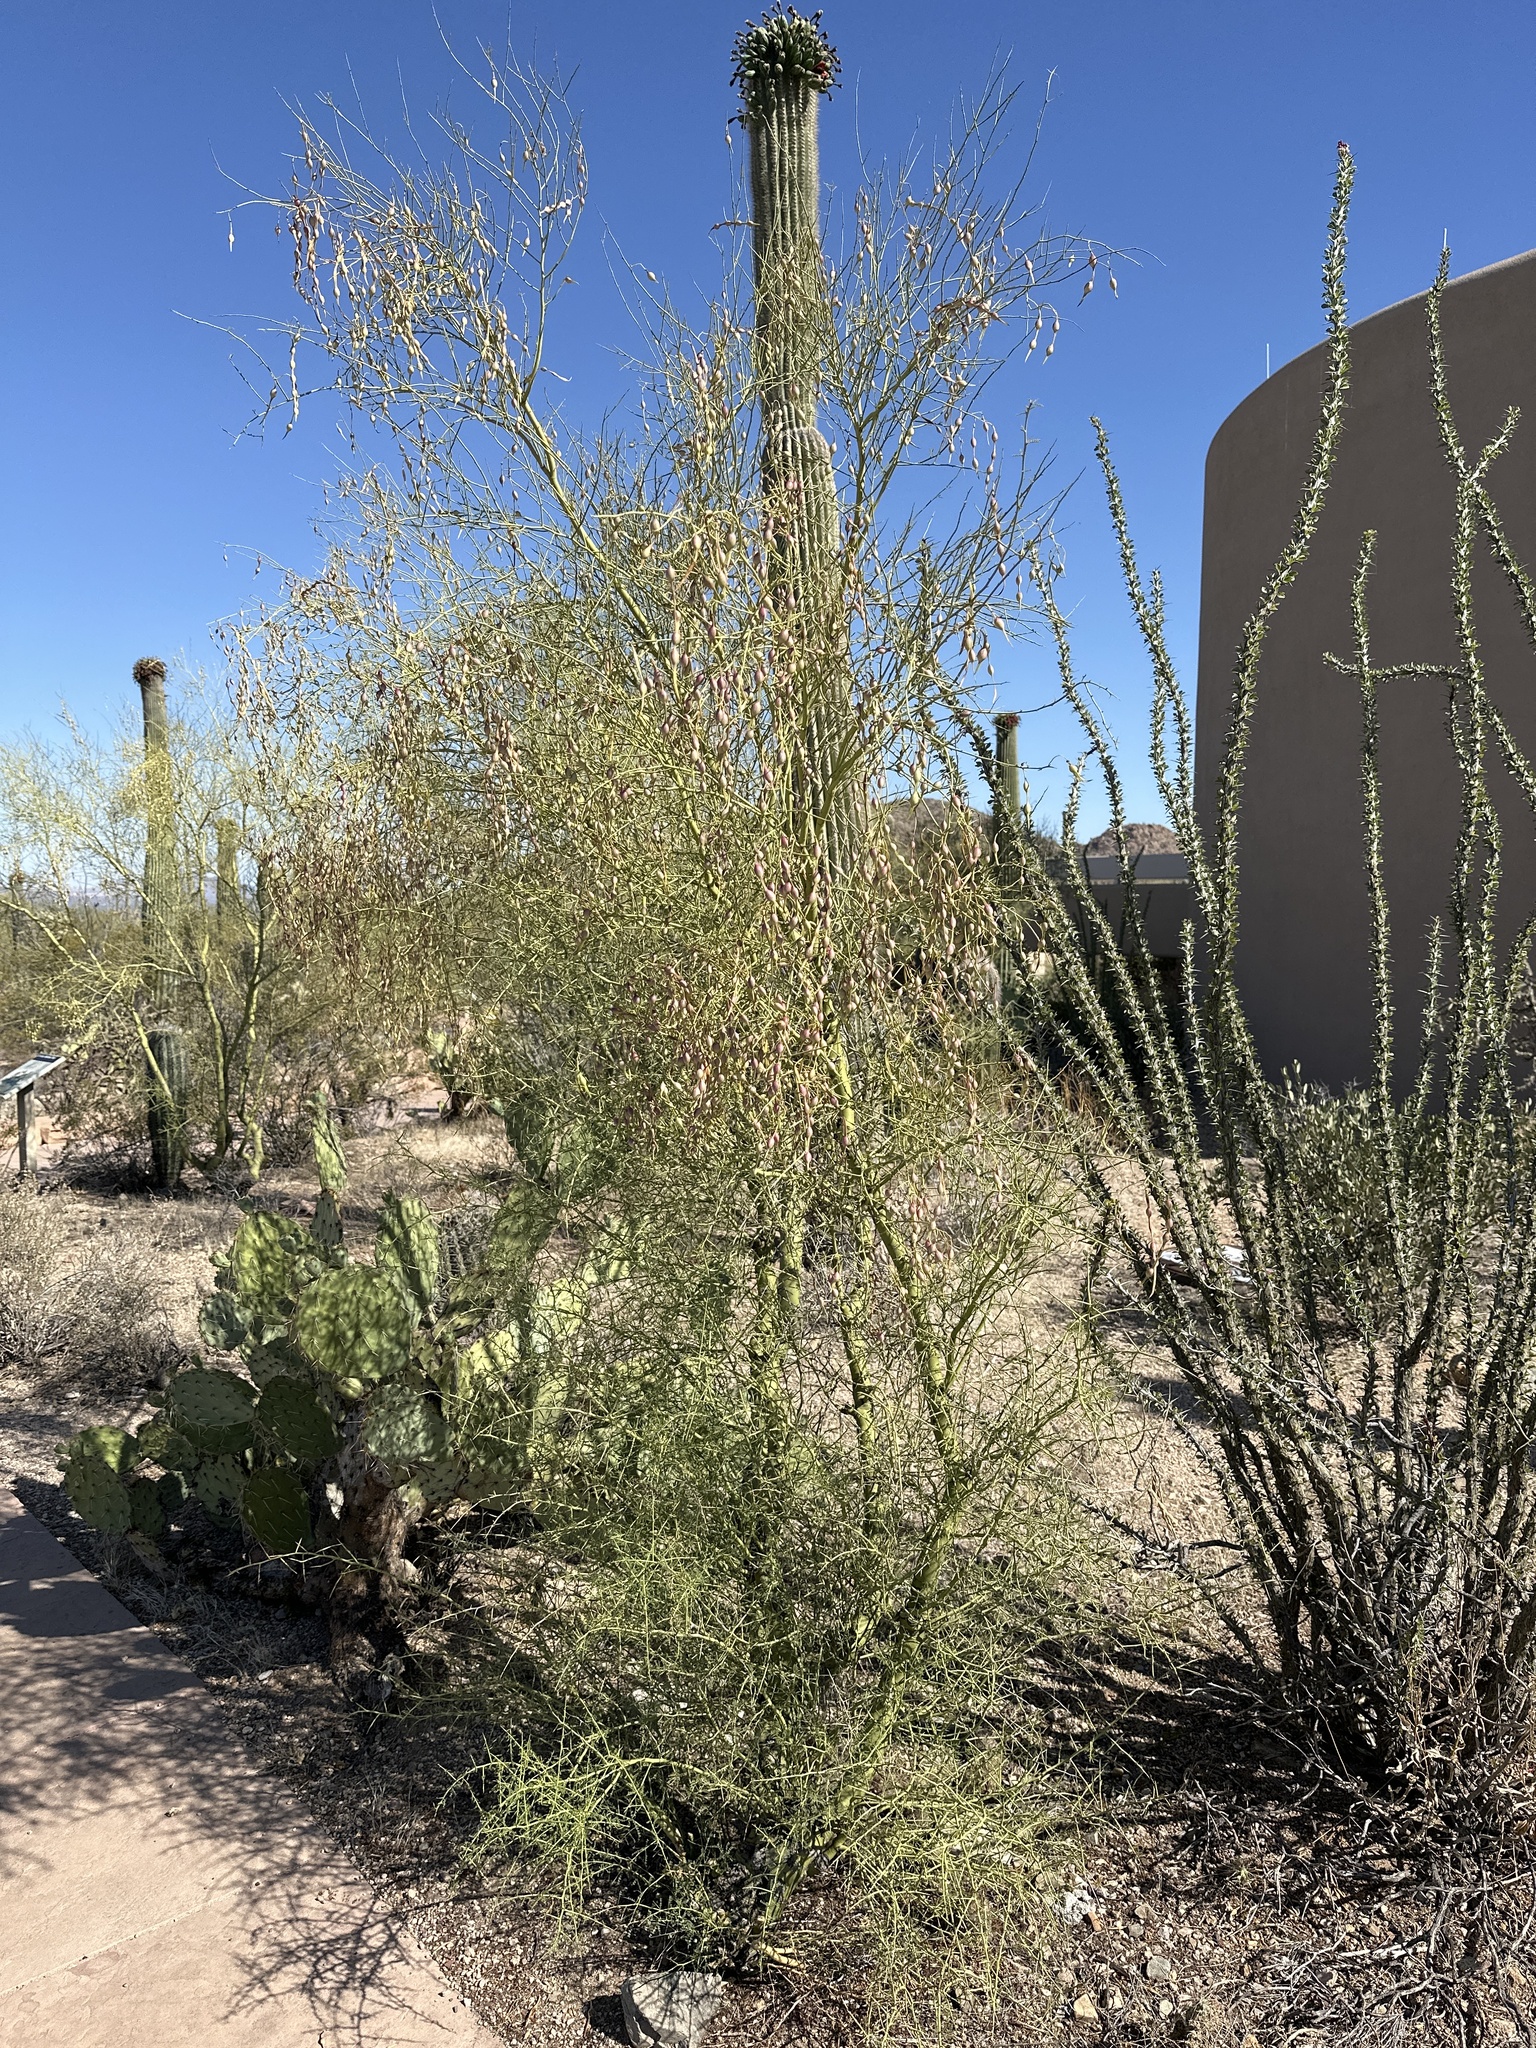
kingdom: Plantae
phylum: Tracheophyta
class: Magnoliopsida
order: Fabales
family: Fabaceae
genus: Parkinsonia
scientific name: Parkinsonia microphylla
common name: Yellow paloverde
